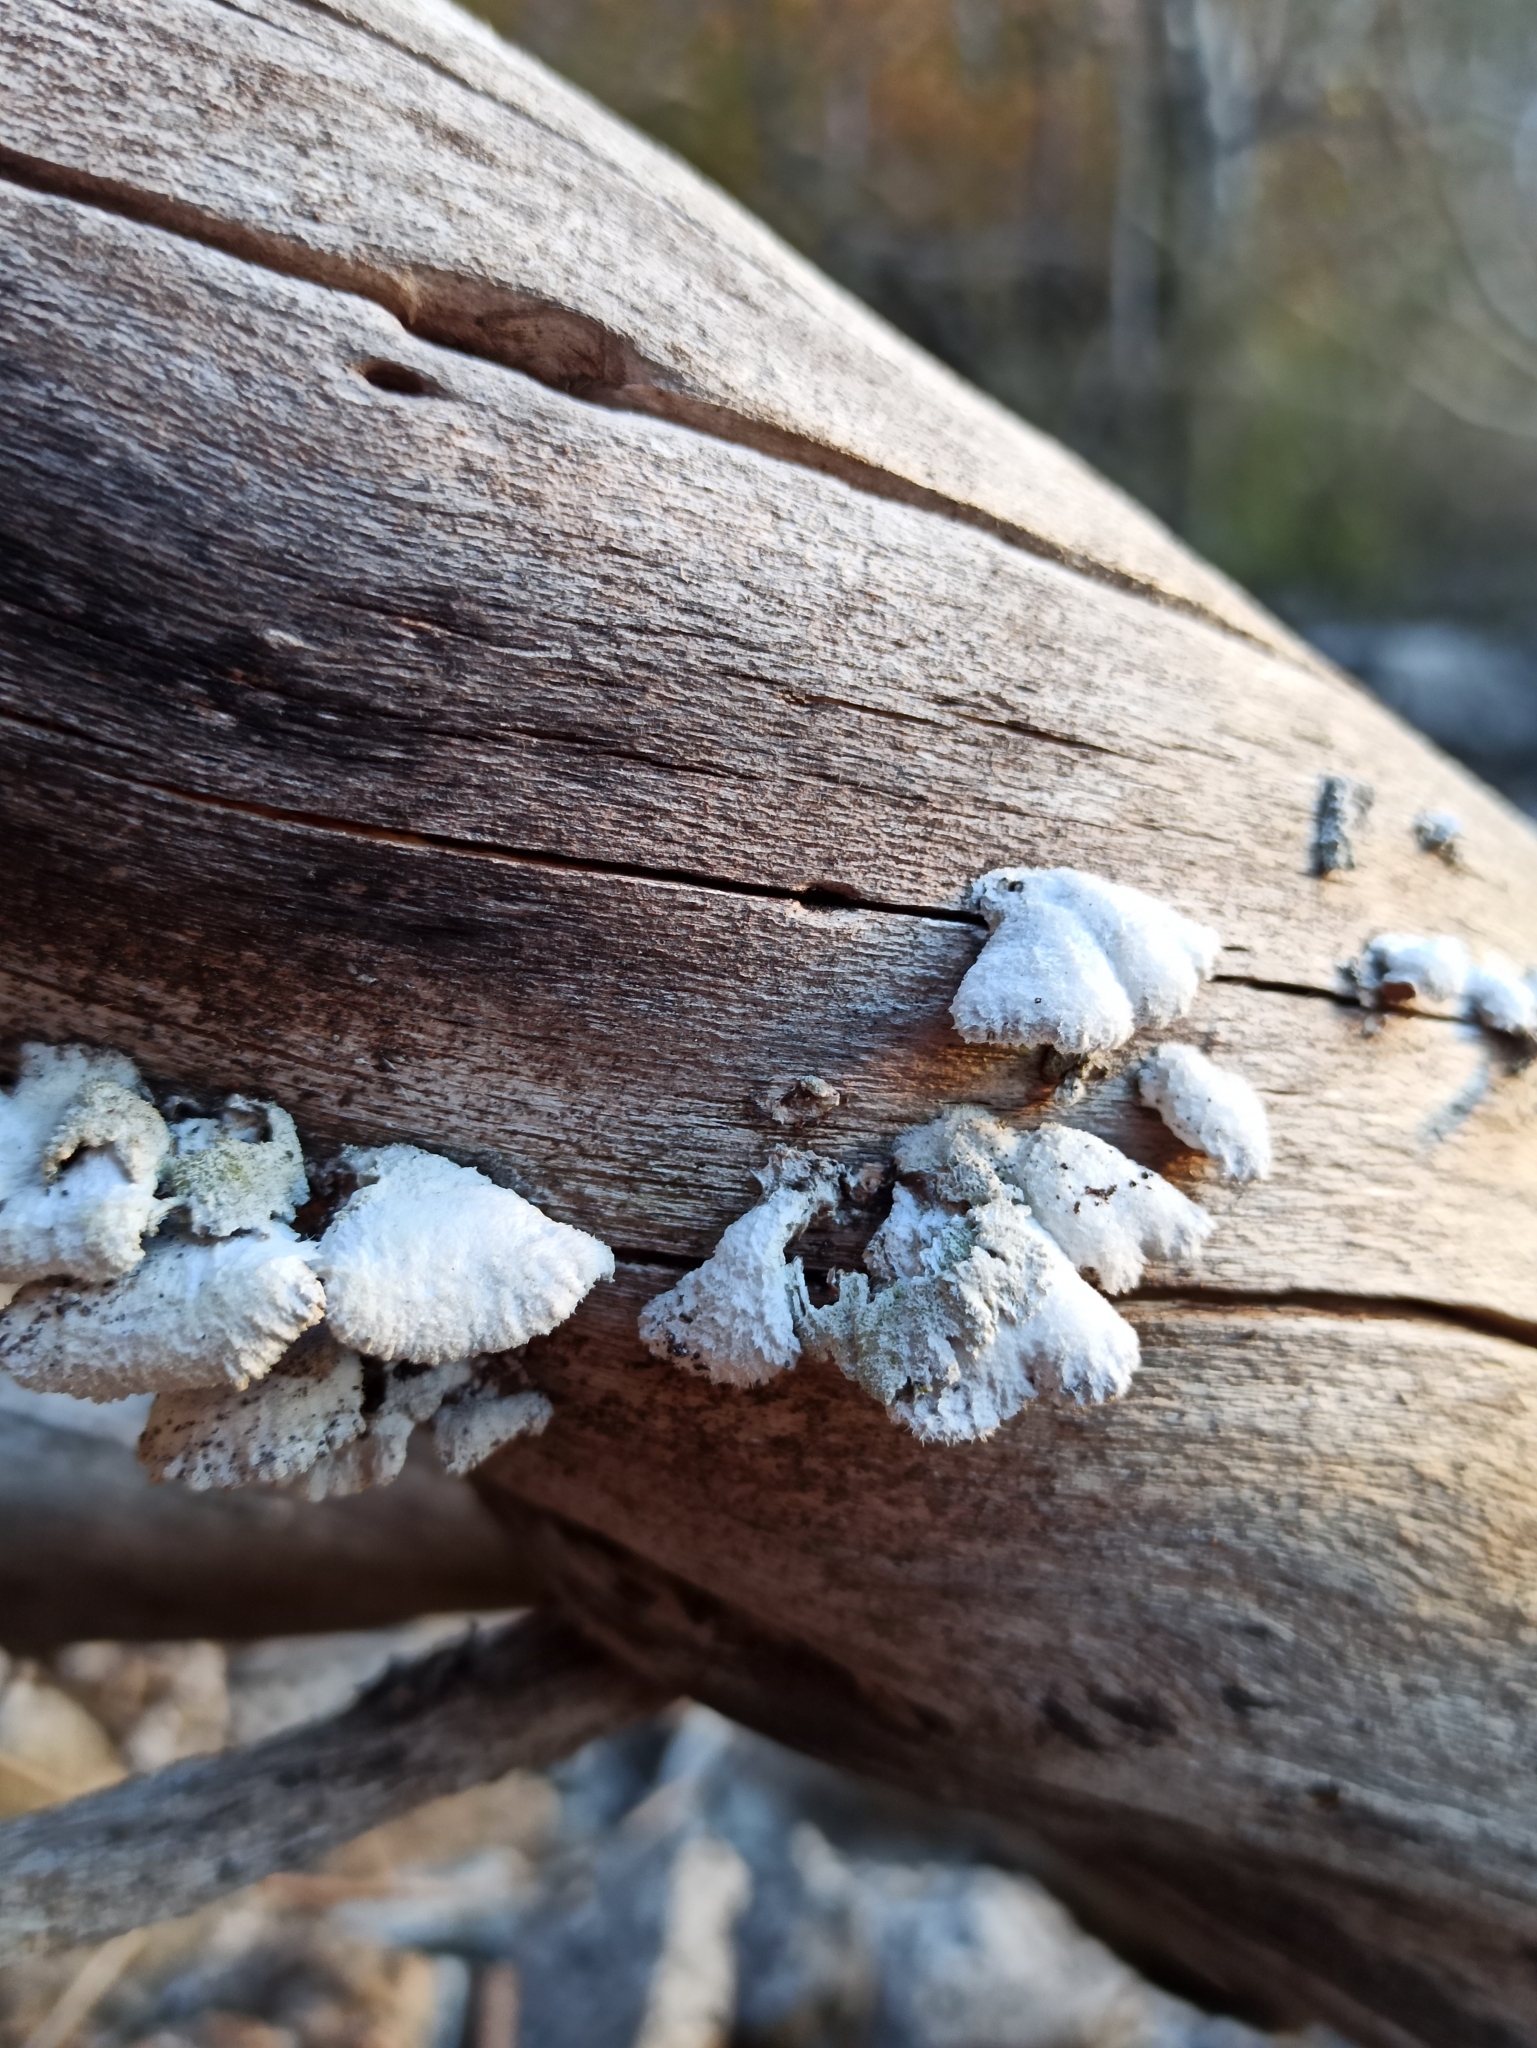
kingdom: Fungi
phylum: Basidiomycota
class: Agaricomycetes
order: Agaricales
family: Schizophyllaceae
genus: Schizophyllum
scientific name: Schizophyllum commune
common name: Common porecrust
